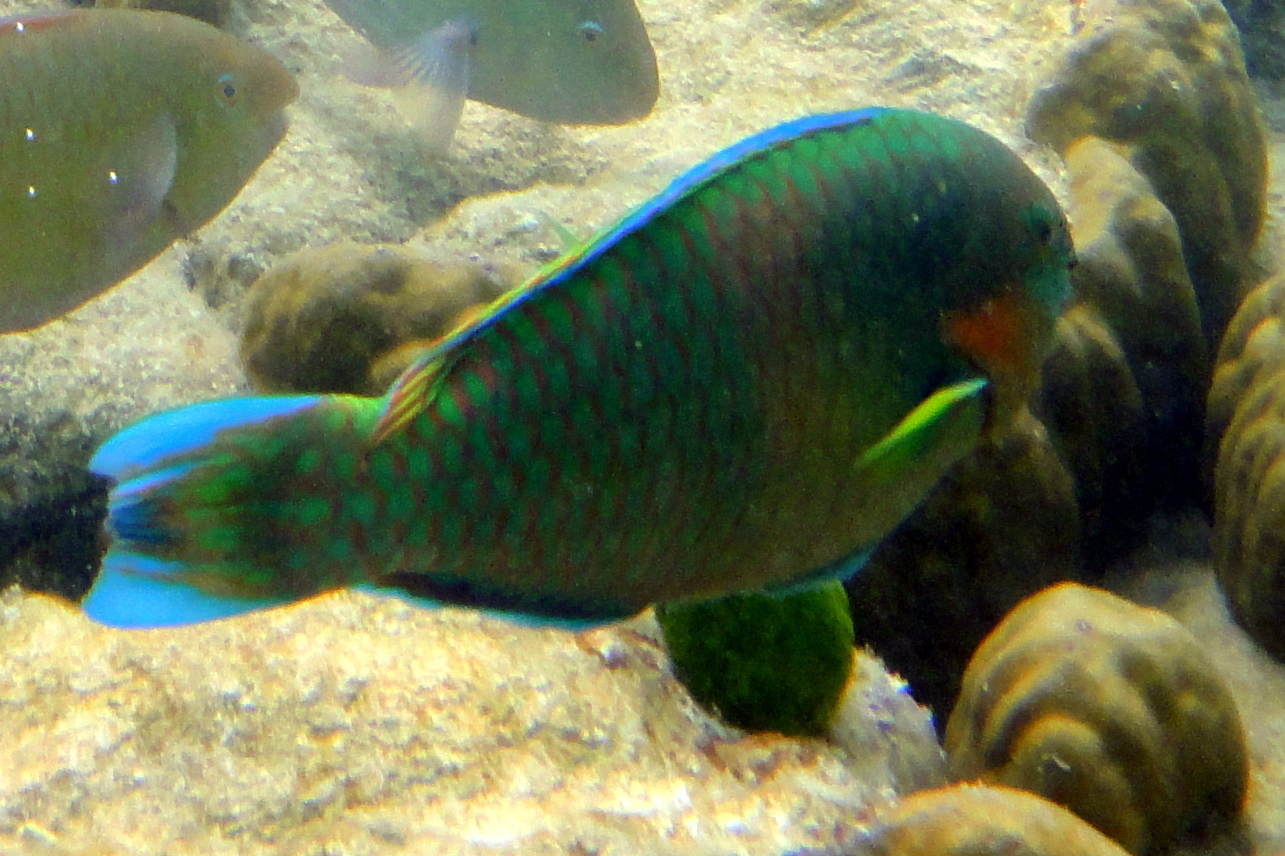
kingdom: Animalia
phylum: Chordata
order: Perciformes
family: Scaridae
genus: Scarus
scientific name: Scarus rivulatus
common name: Surf parrotfish
